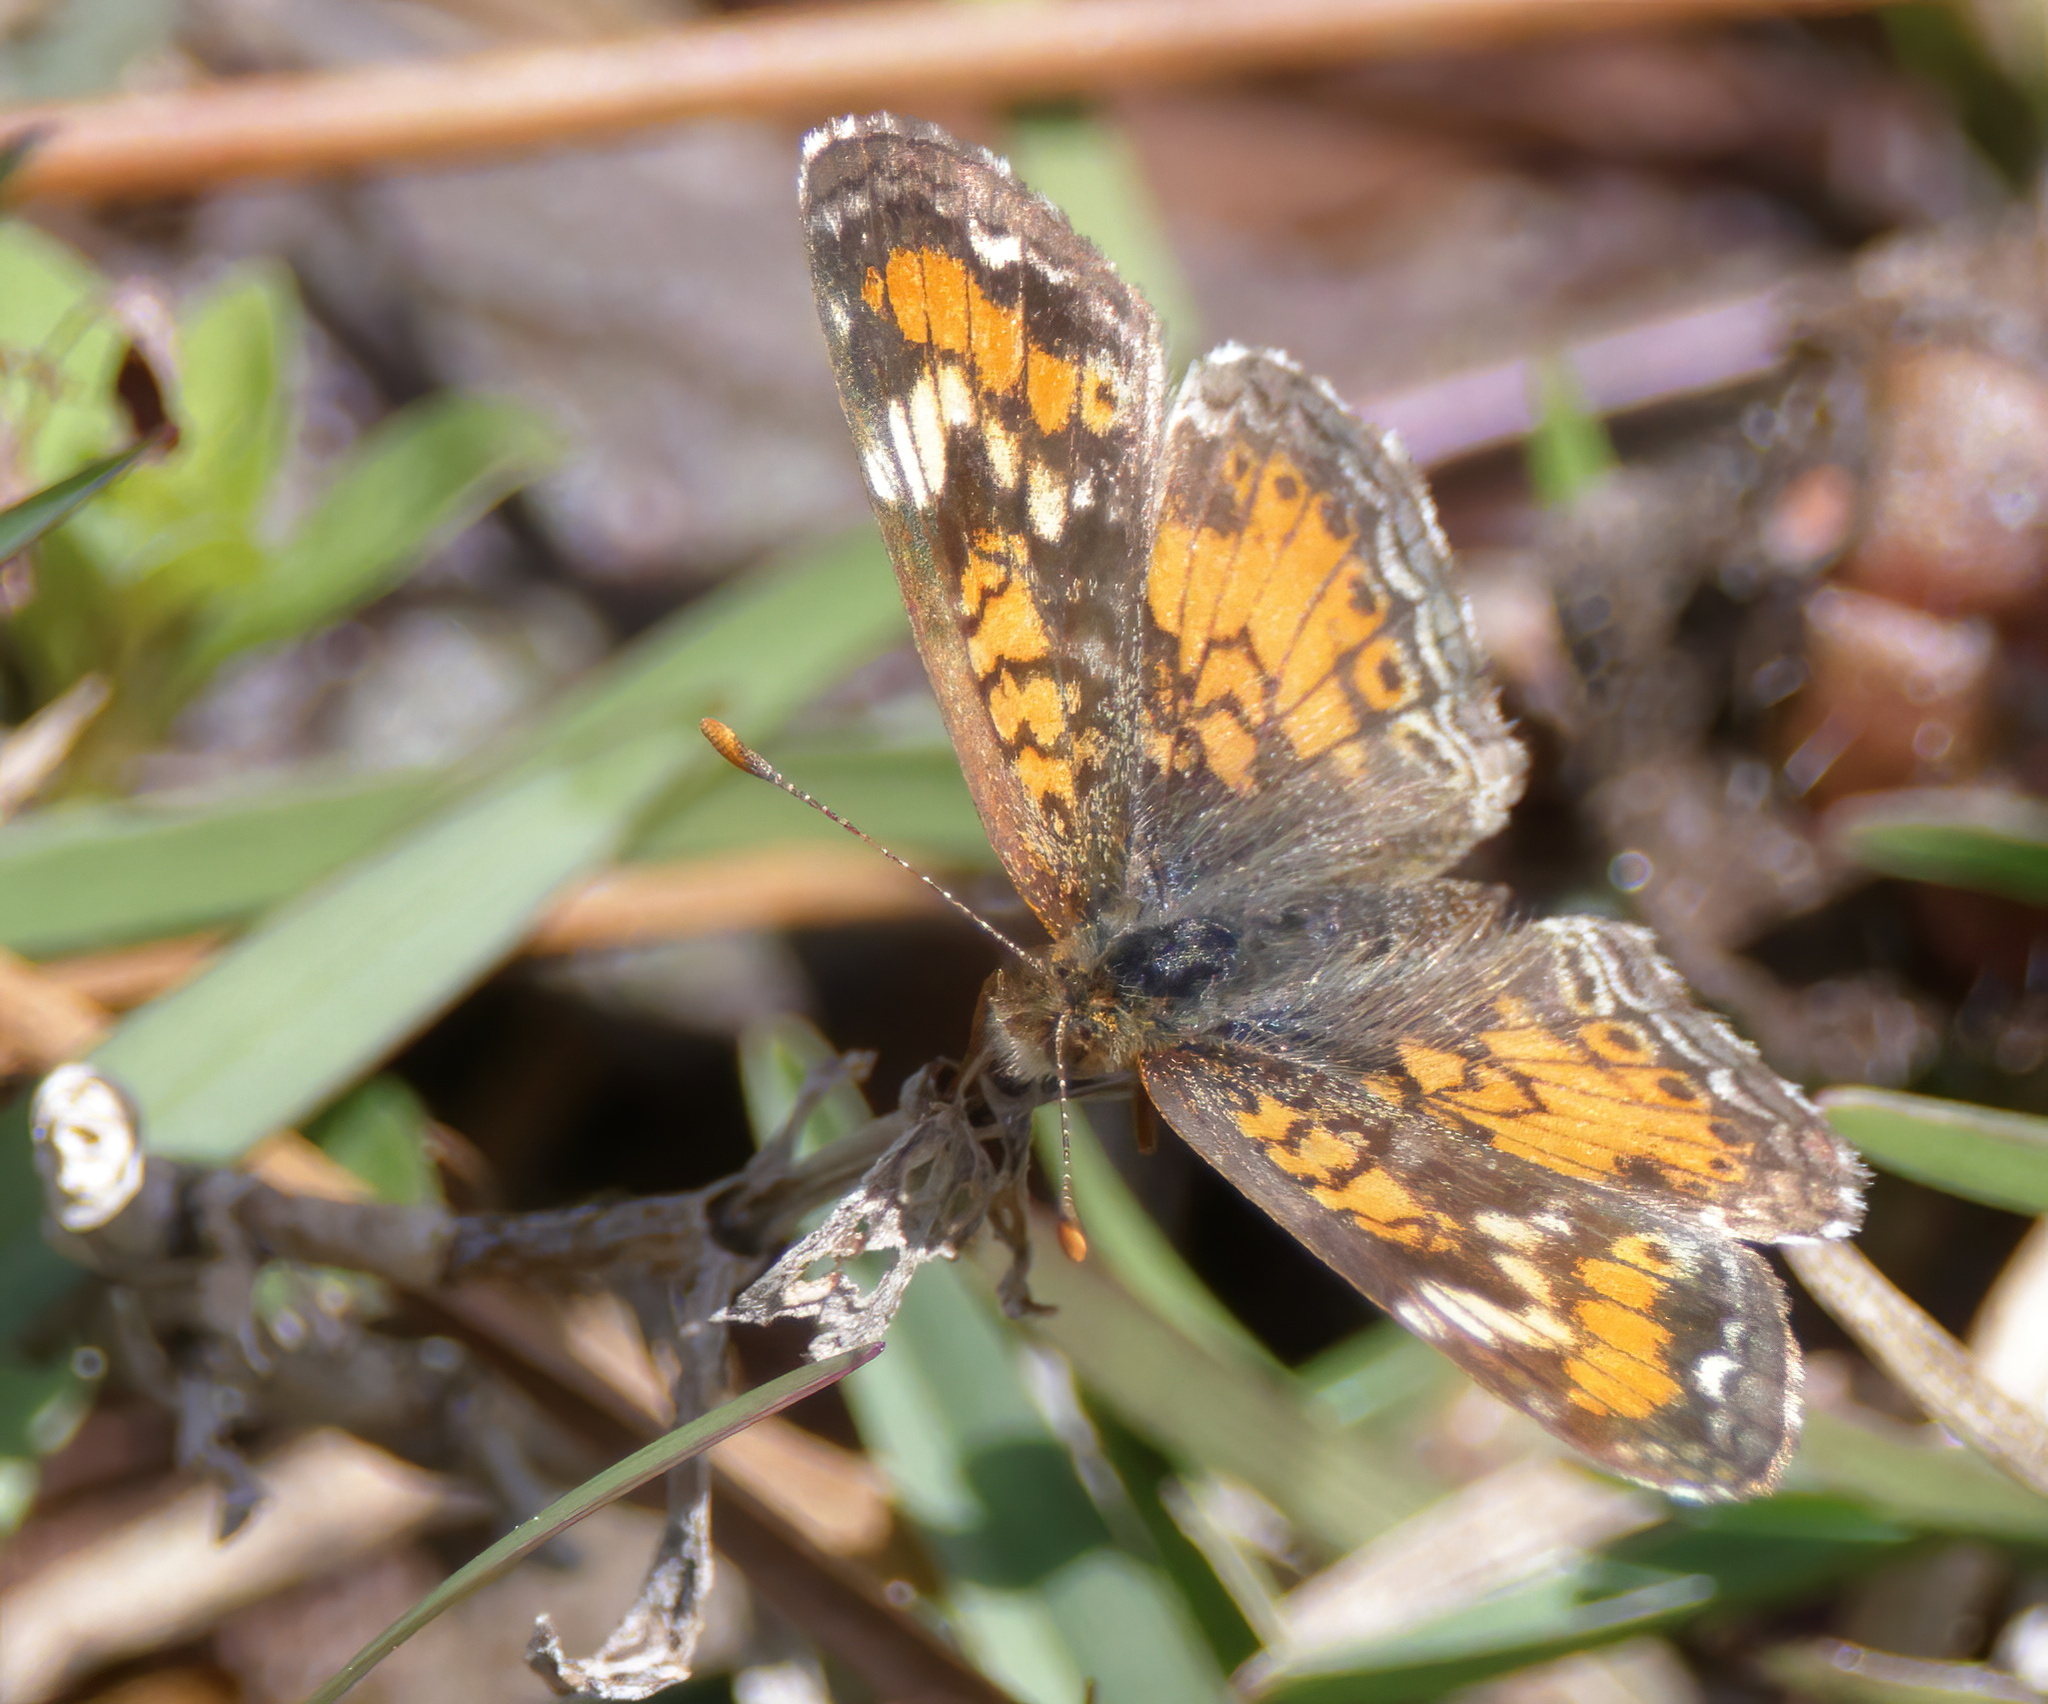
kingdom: Animalia
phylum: Arthropoda
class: Insecta
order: Lepidoptera
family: Nymphalidae
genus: Phyciodes
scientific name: Phyciodes phaon
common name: Phaon crescent
